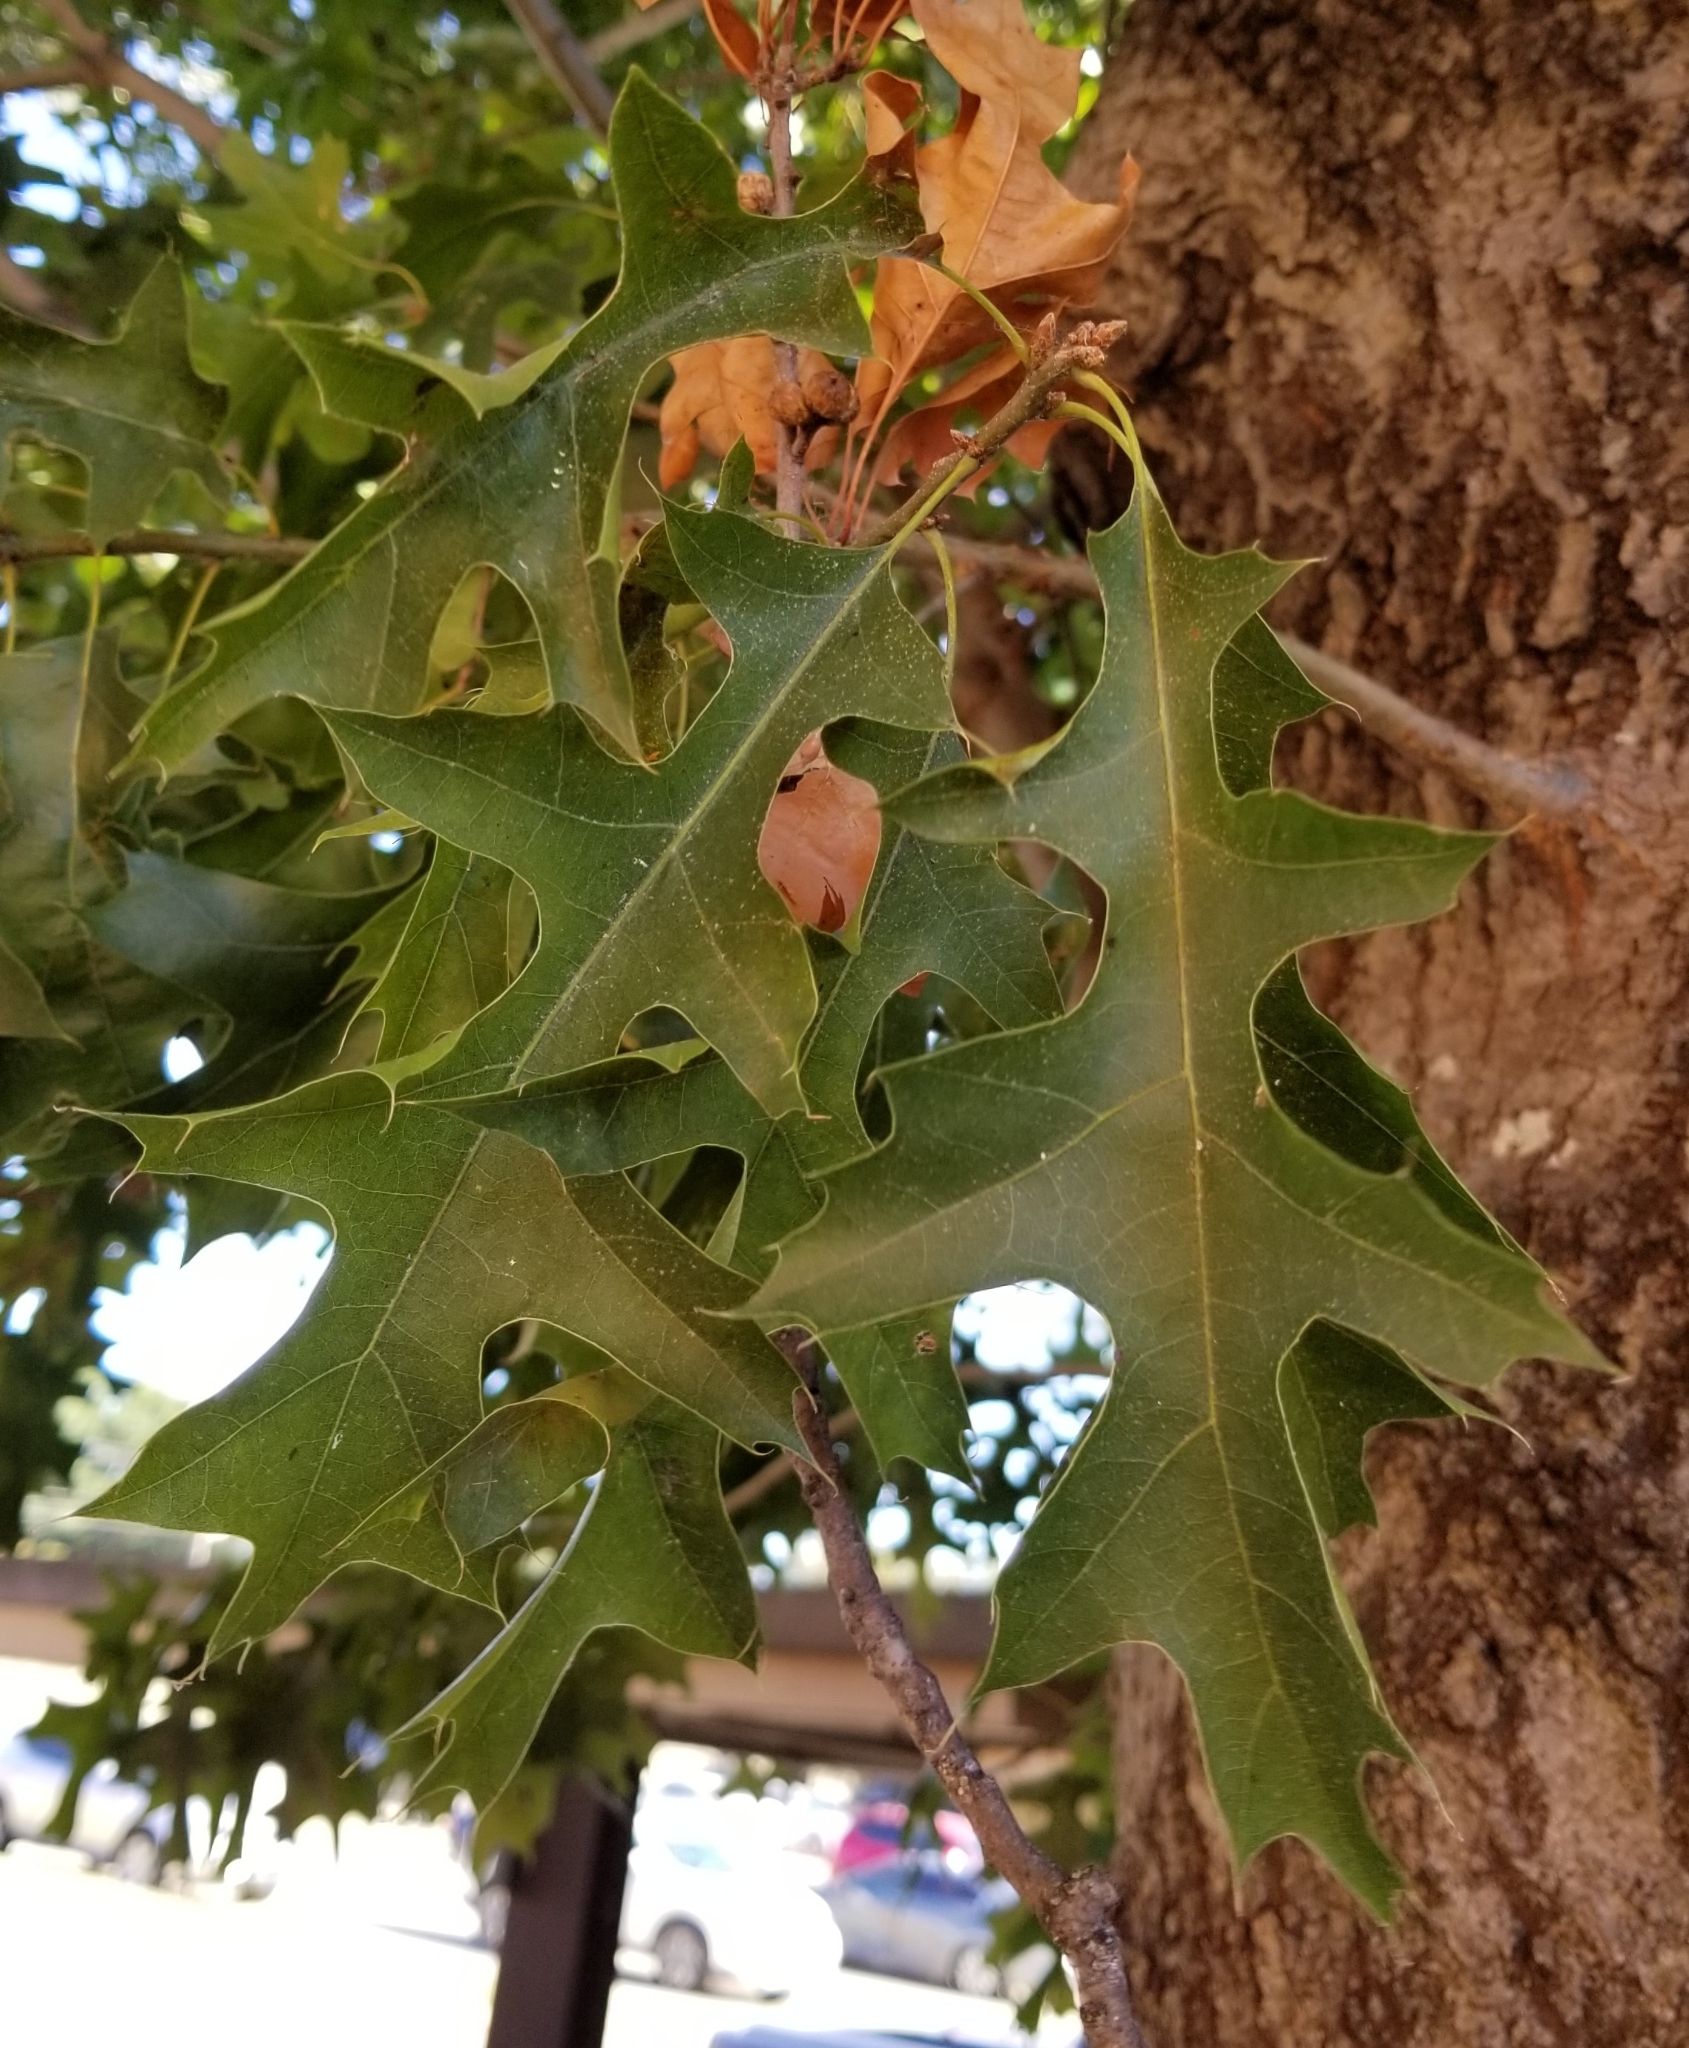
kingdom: Plantae
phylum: Tracheophyta
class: Magnoliopsida
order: Fagales
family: Fagaceae
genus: Quercus
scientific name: Quercus shumardii
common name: Shumard oak
